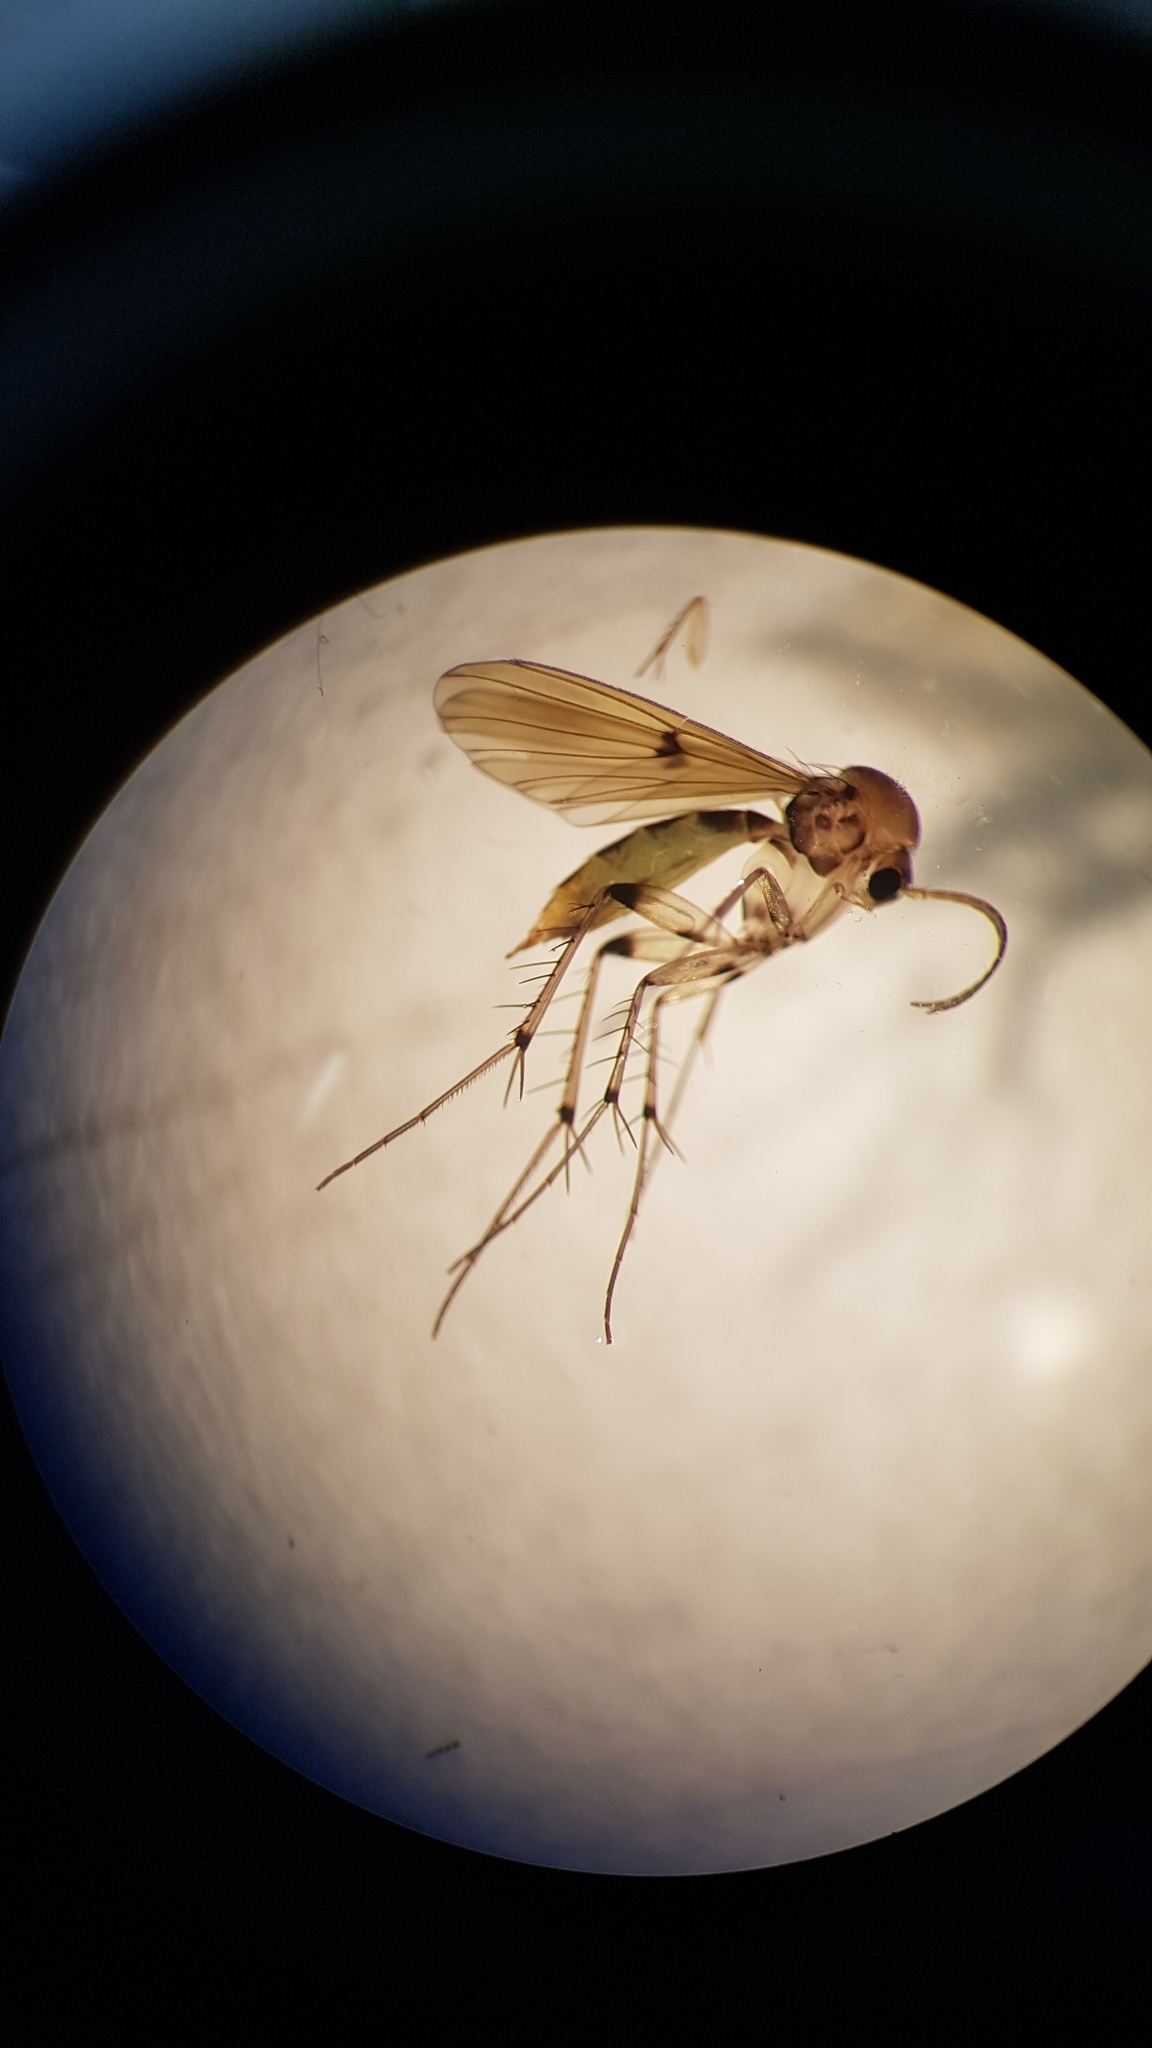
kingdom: Animalia
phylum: Arthropoda
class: Insecta
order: Diptera
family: Mycetophilidae
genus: Mycetophila
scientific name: Mycetophila marginepunctata
